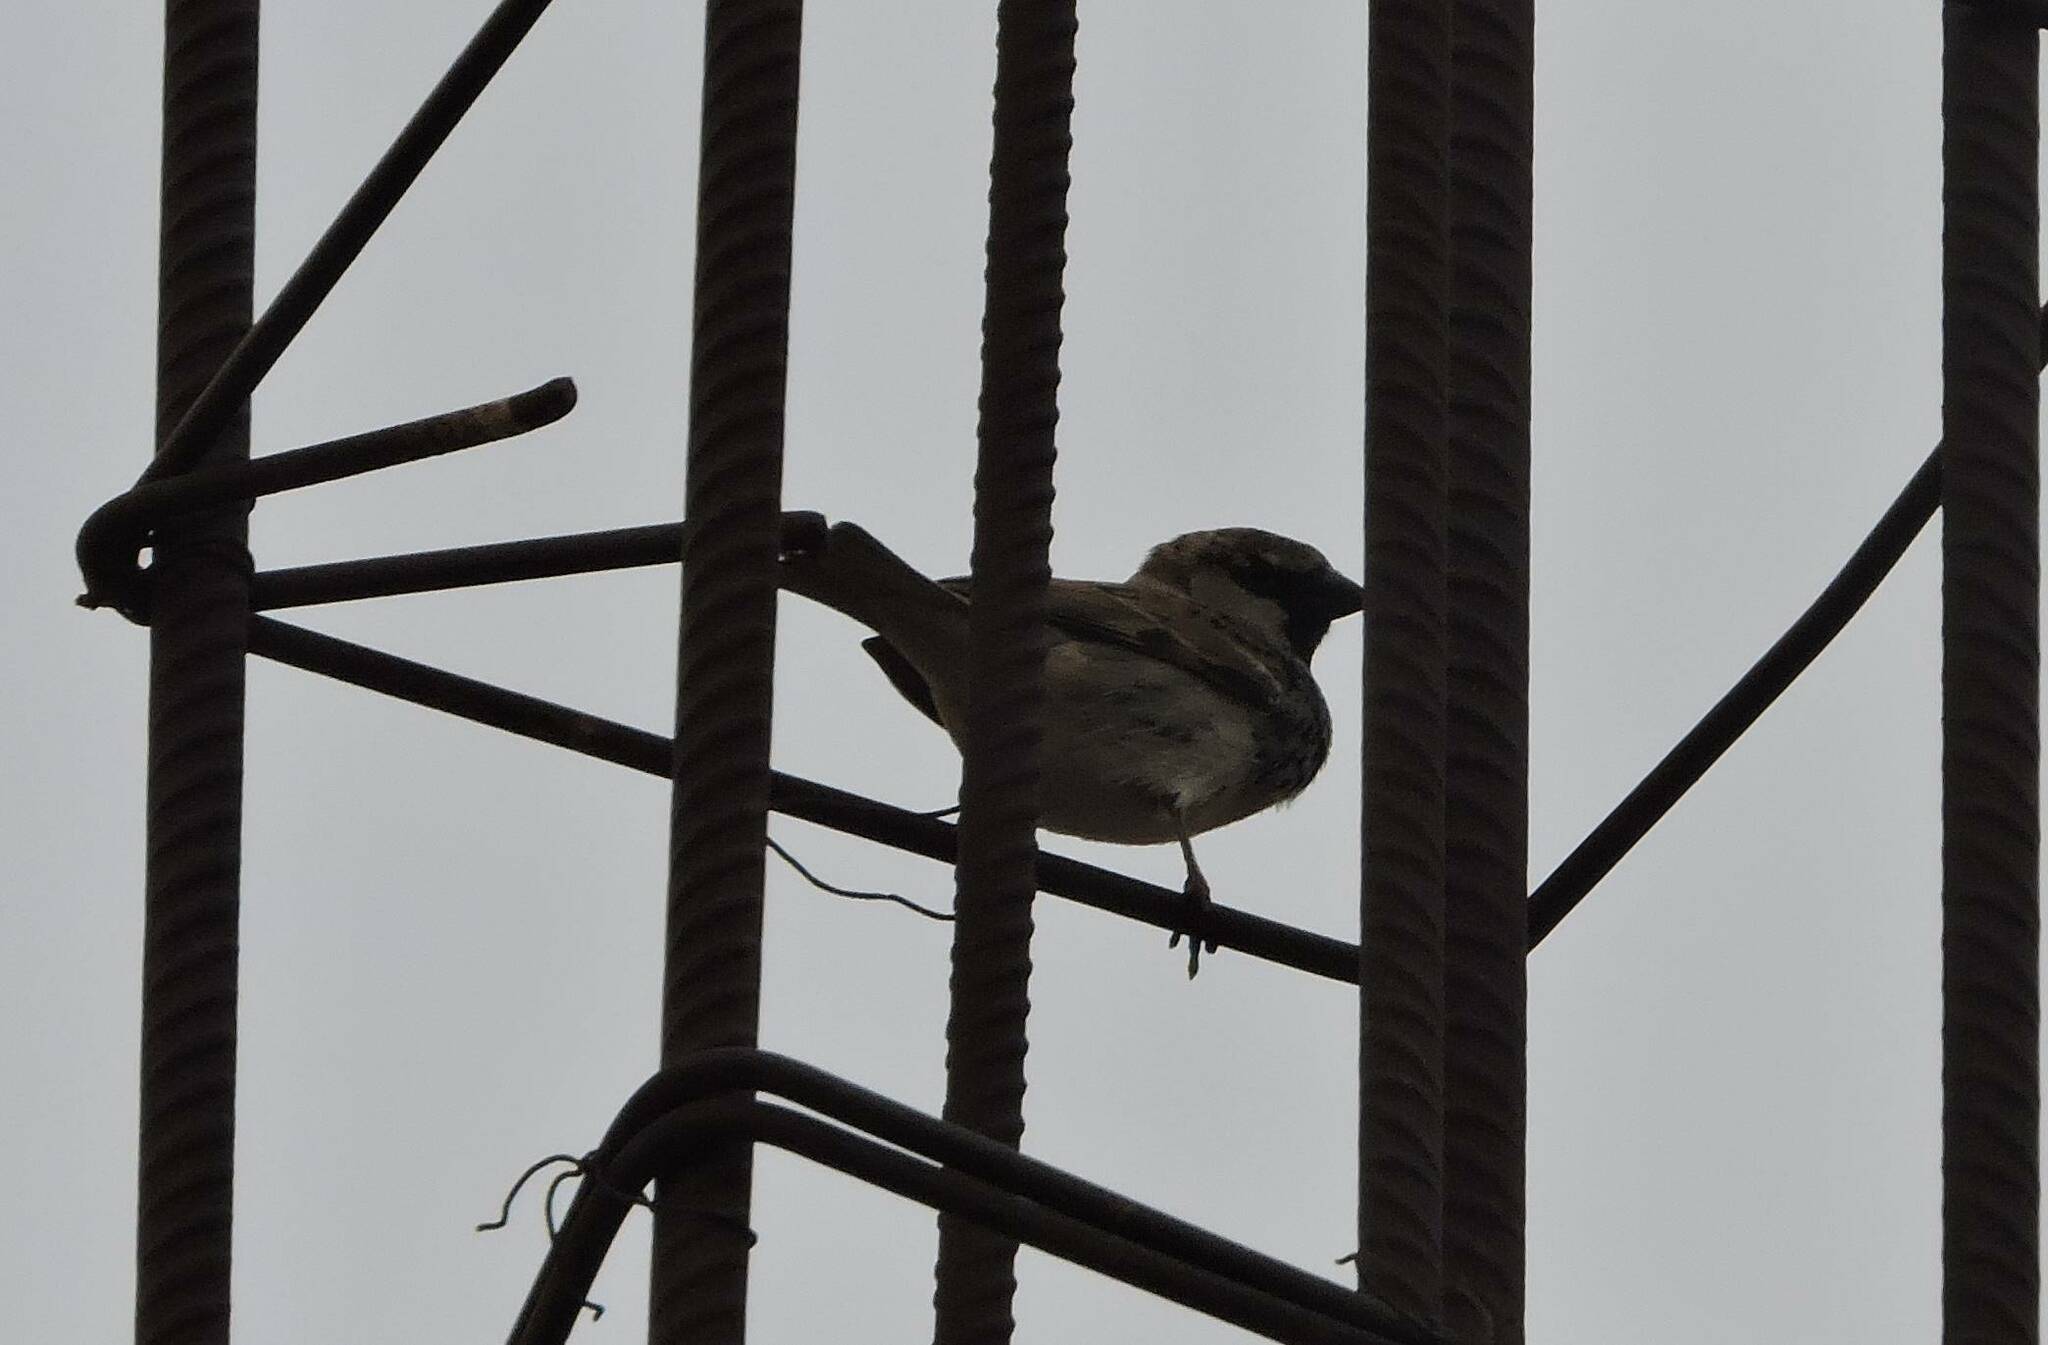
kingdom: Animalia
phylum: Chordata
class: Aves
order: Passeriformes
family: Passeridae
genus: Passer
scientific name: Passer domesticus
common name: House sparrow
